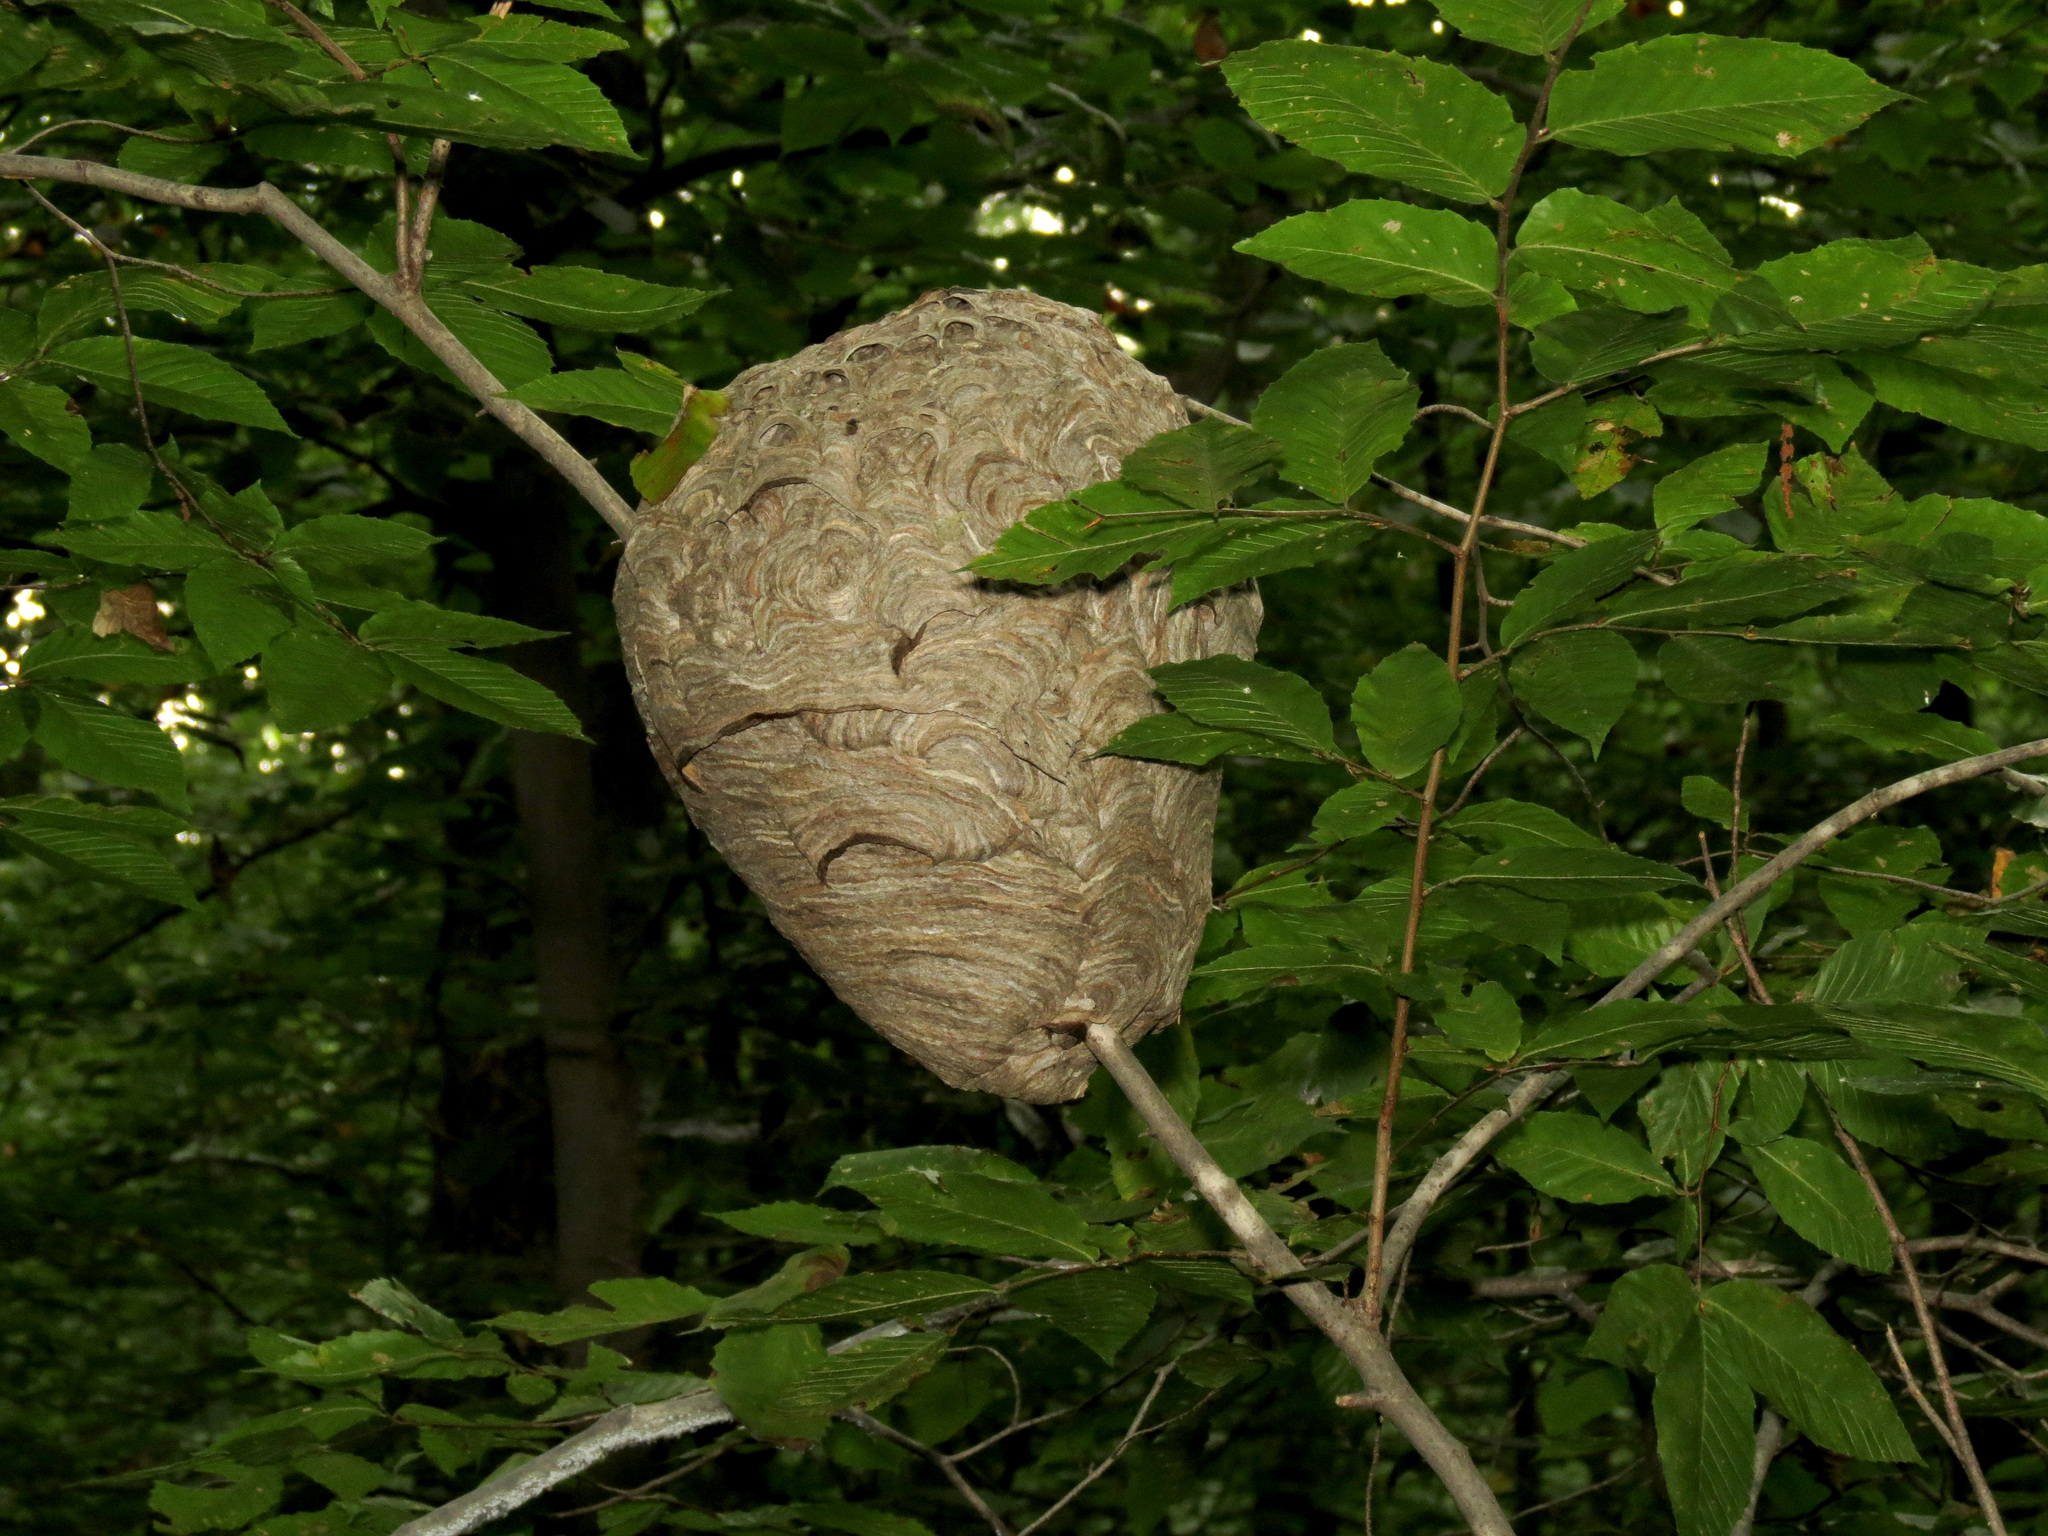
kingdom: Animalia
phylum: Arthropoda
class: Insecta
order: Hymenoptera
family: Vespidae
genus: Dolichovespula
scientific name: Dolichovespula maculata
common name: Bald-faced hornet
